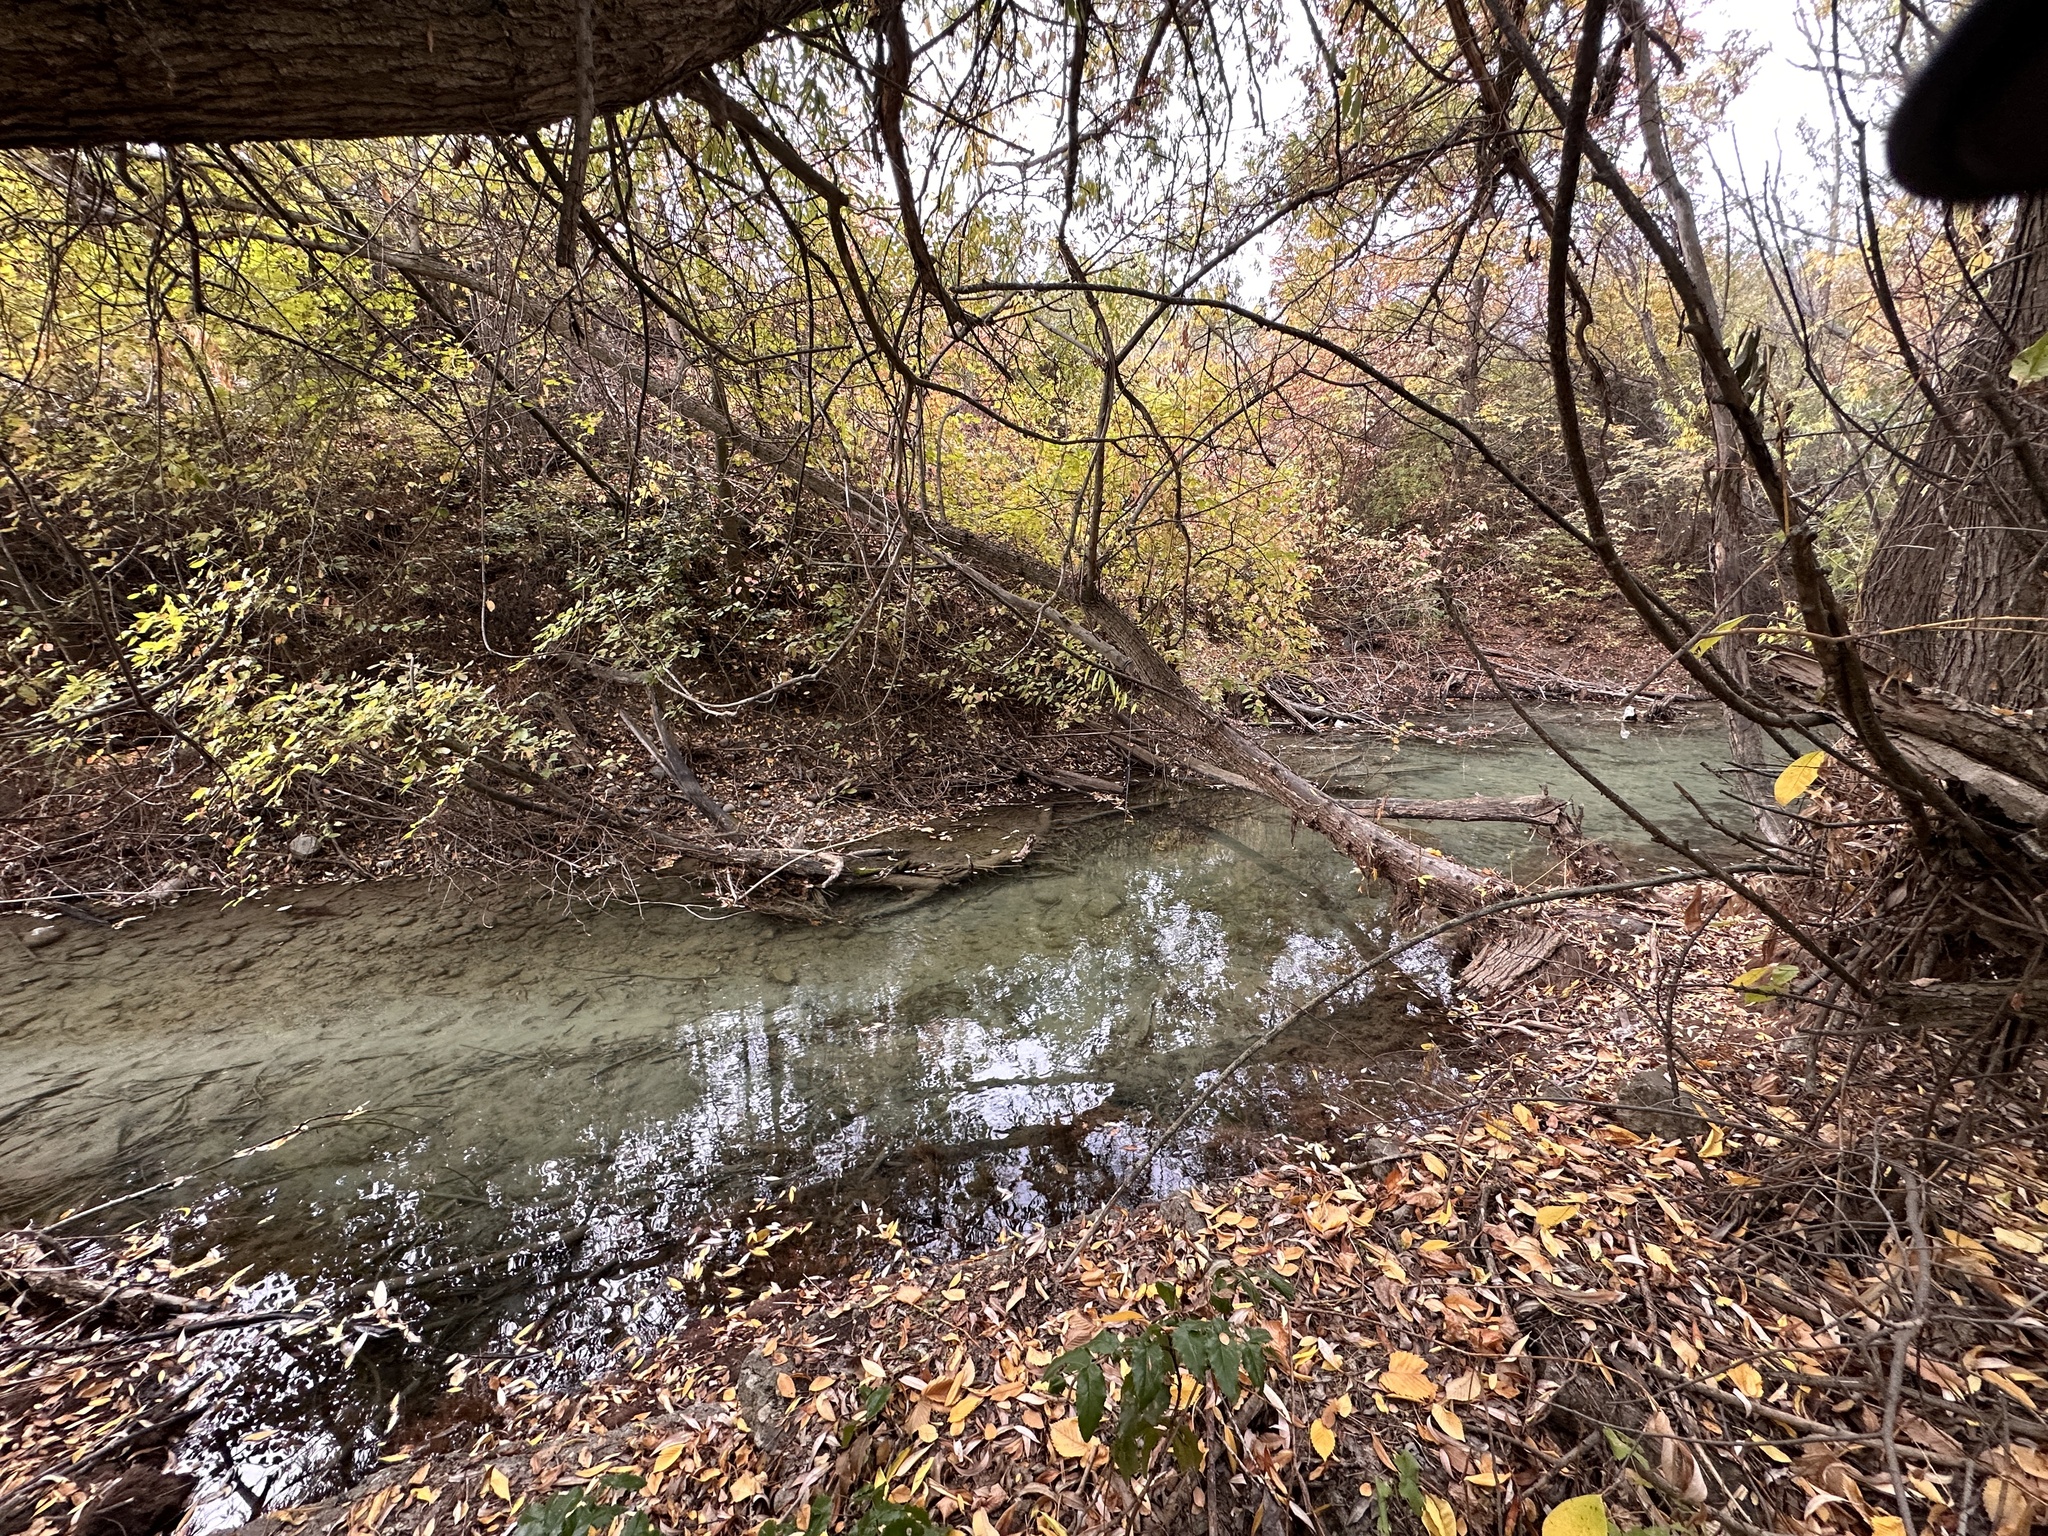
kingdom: Animalia
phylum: Chordata
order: Cypriniformes
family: Cyprinidae
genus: Cyprinus
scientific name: Cyprinus carpio
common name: Common carp
